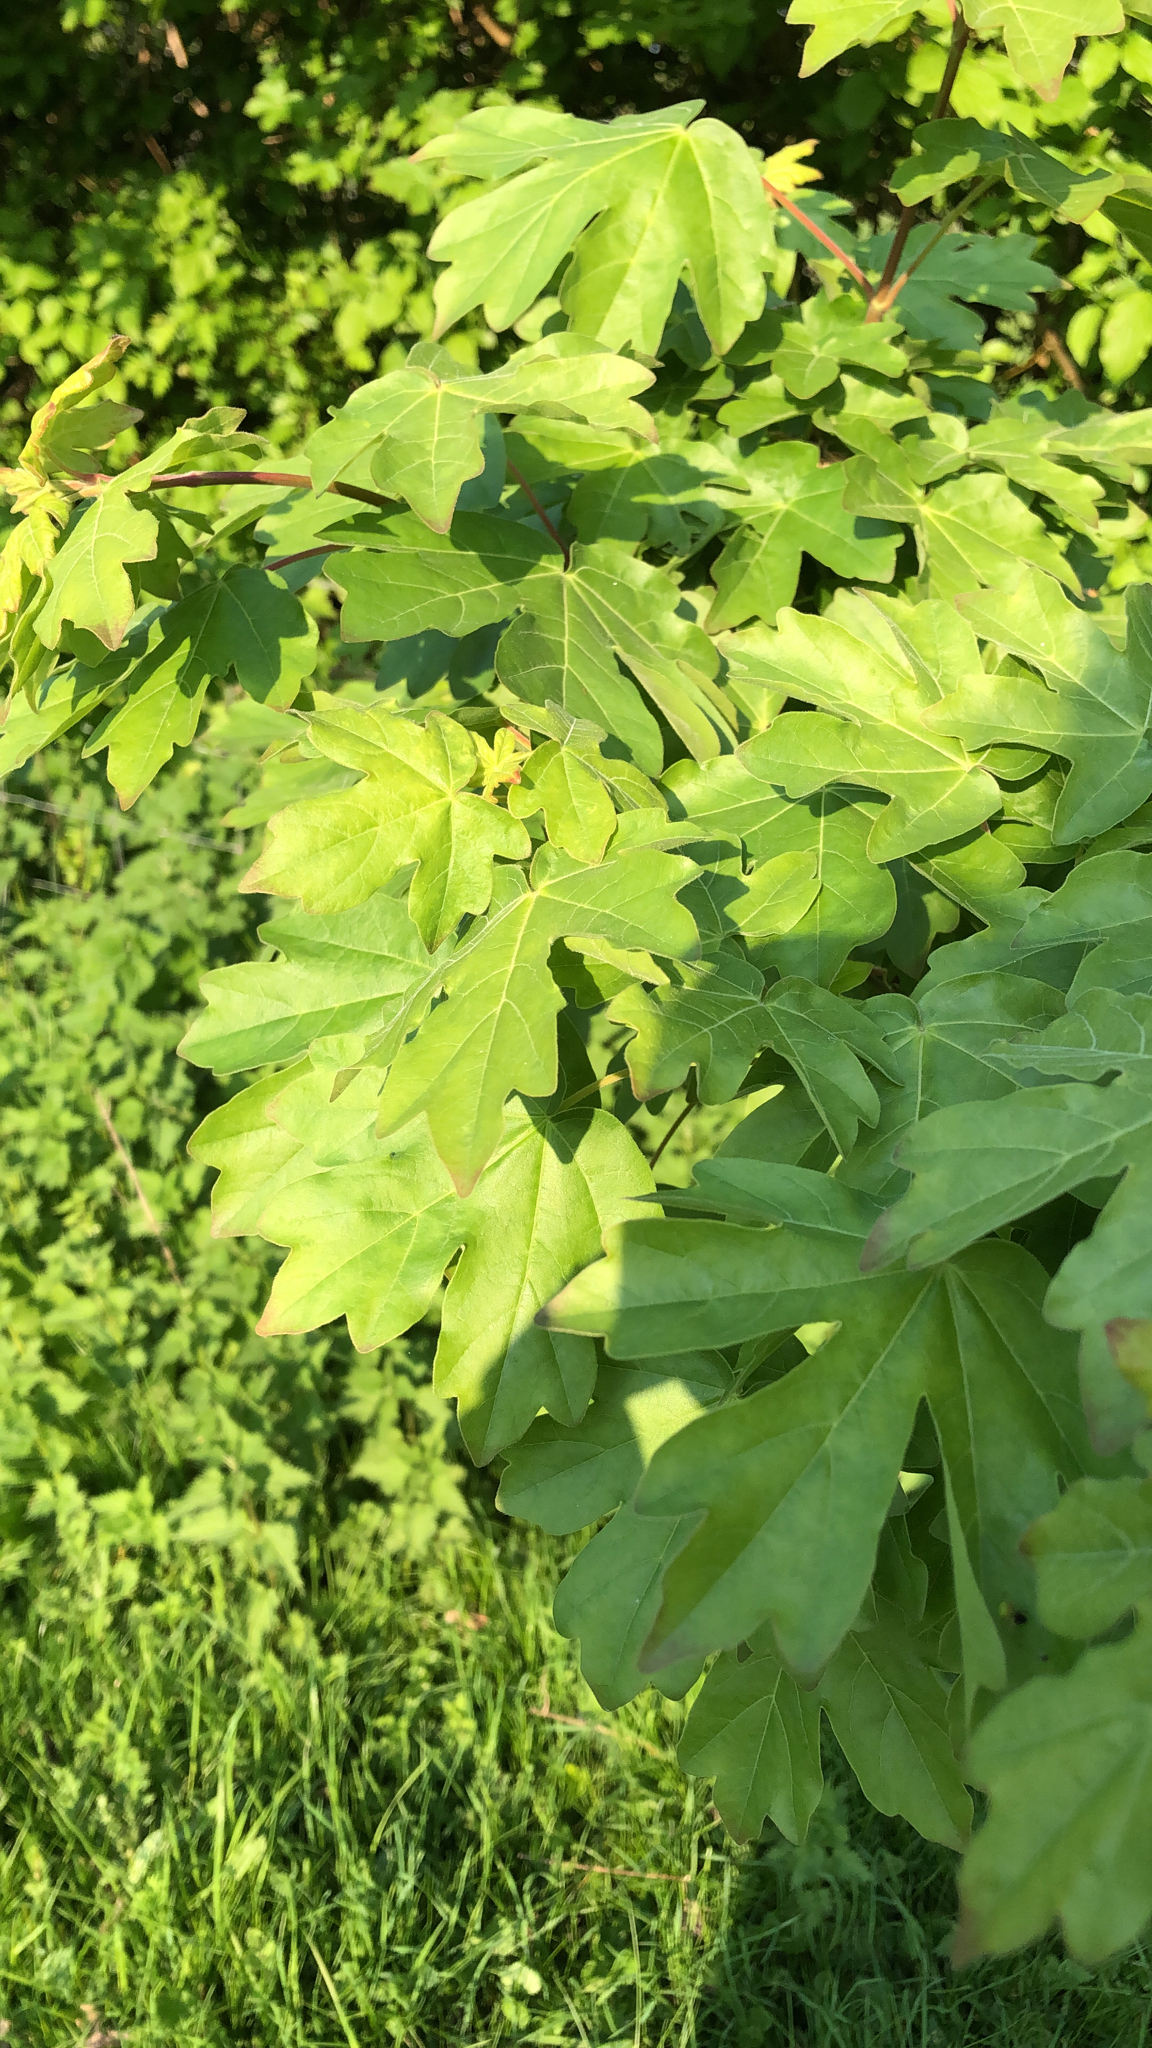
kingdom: Plantae
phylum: Tracheophyta
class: Magnoliopsida
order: Sapindales
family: Sapindaceae
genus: Acer
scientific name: Acer campestre
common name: Field maple
